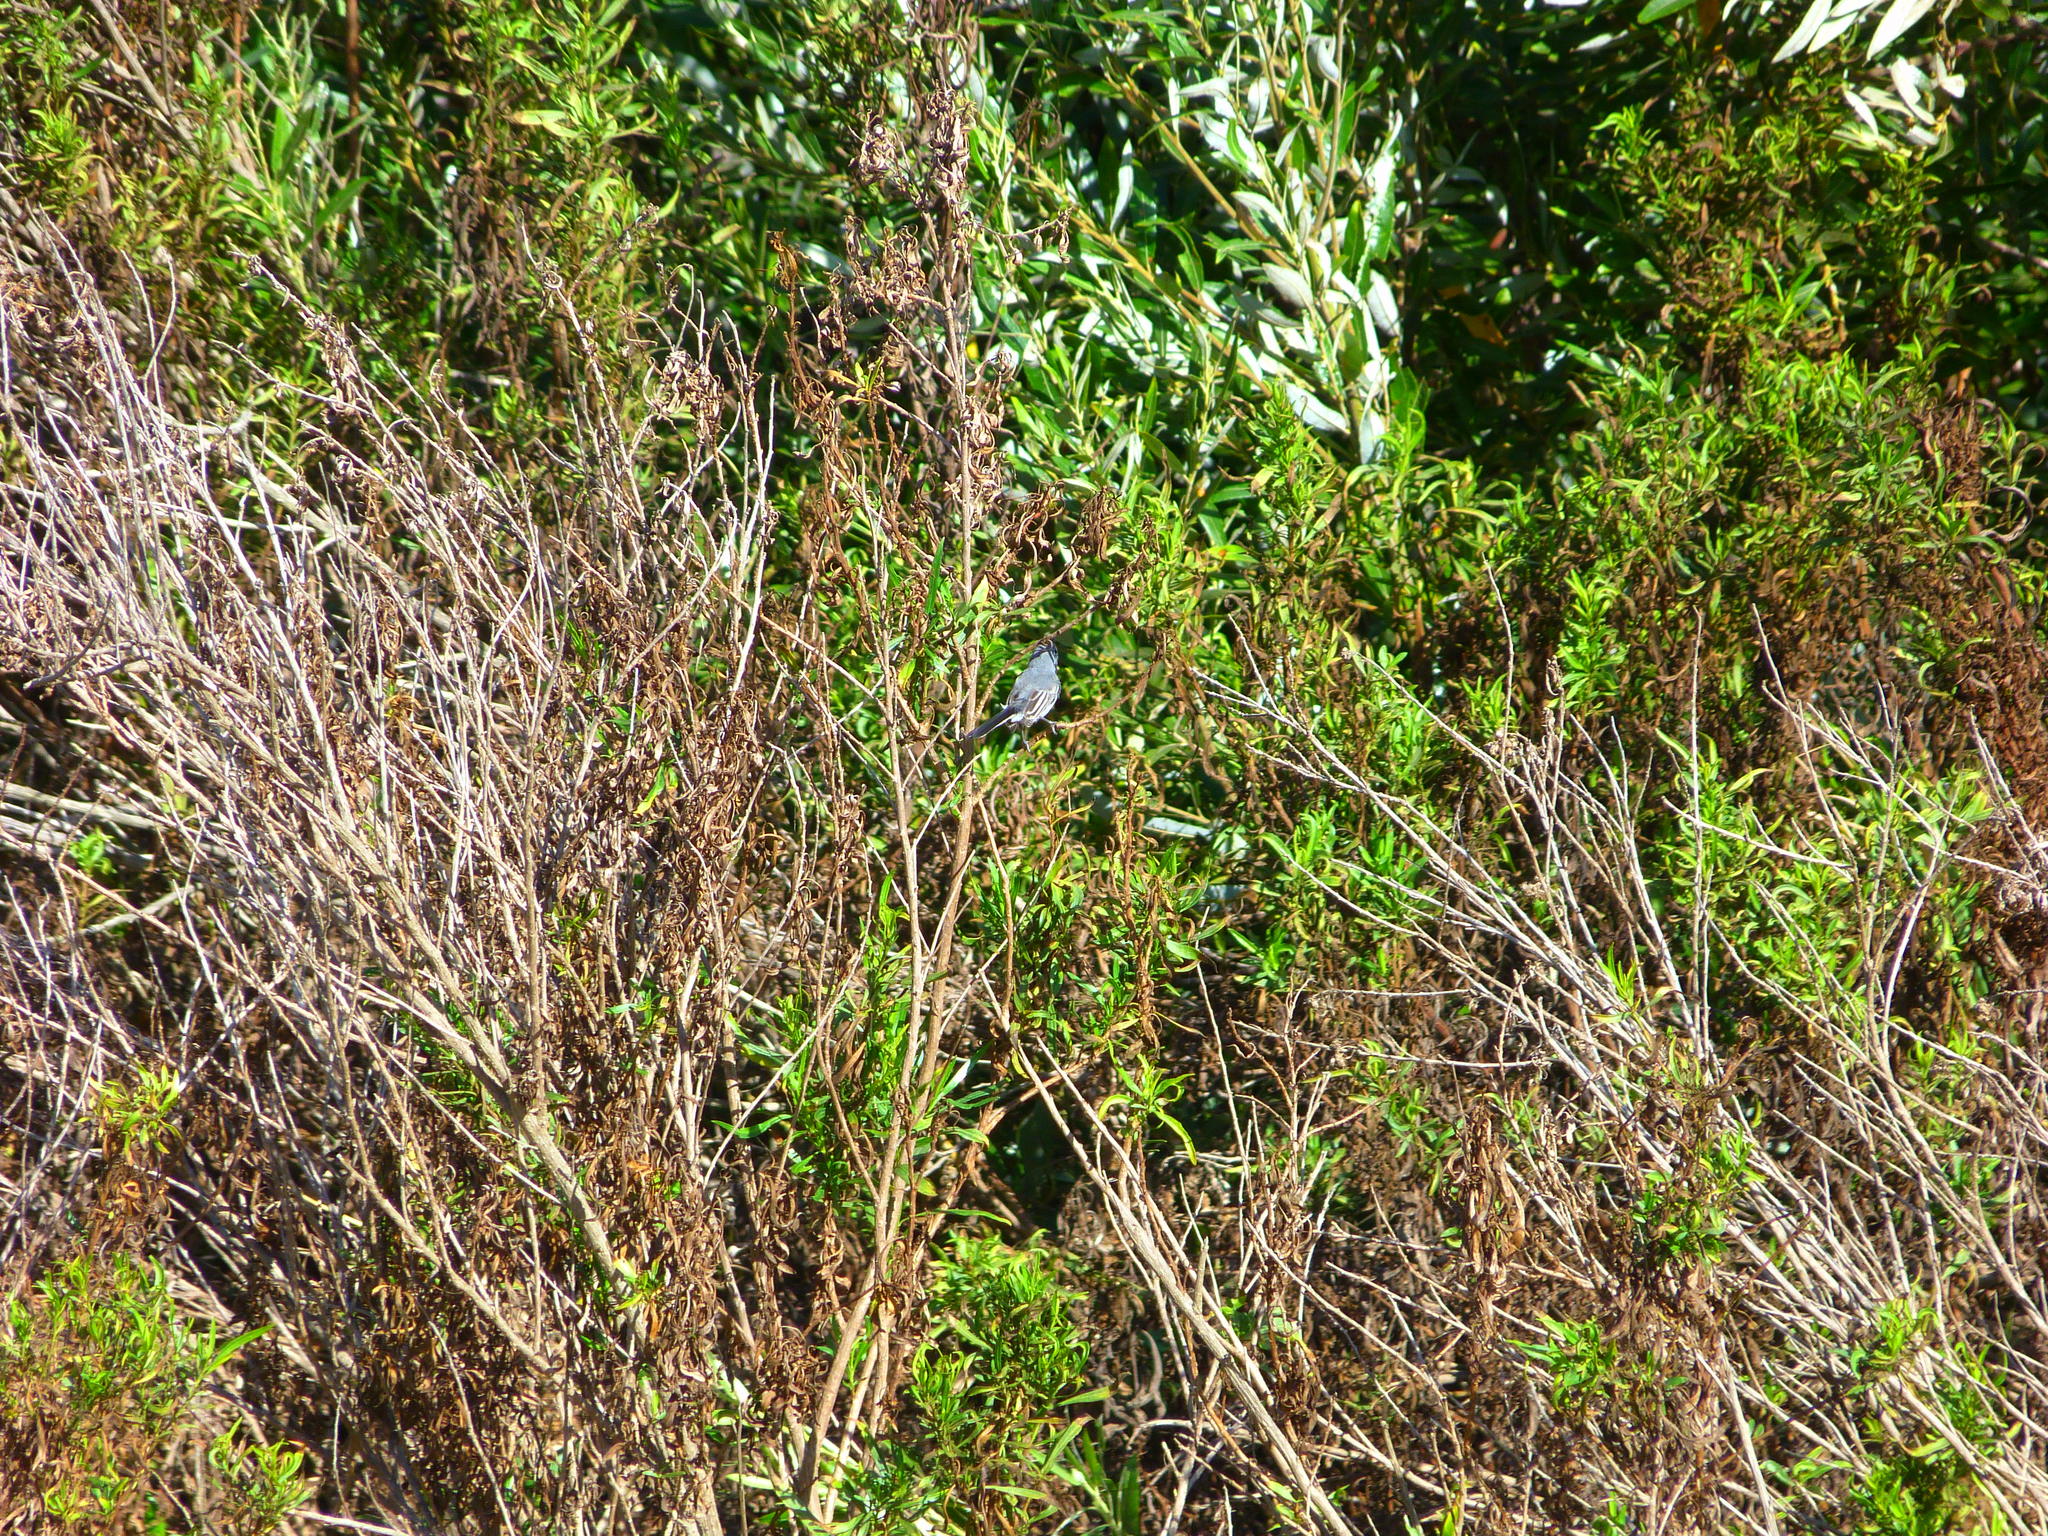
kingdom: Animalia
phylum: Chordata
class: Aves
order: Passeriformes
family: Polioptilidae
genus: Polioptila
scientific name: Polioptila caerulea
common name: Blue-gray gnatcatcher
